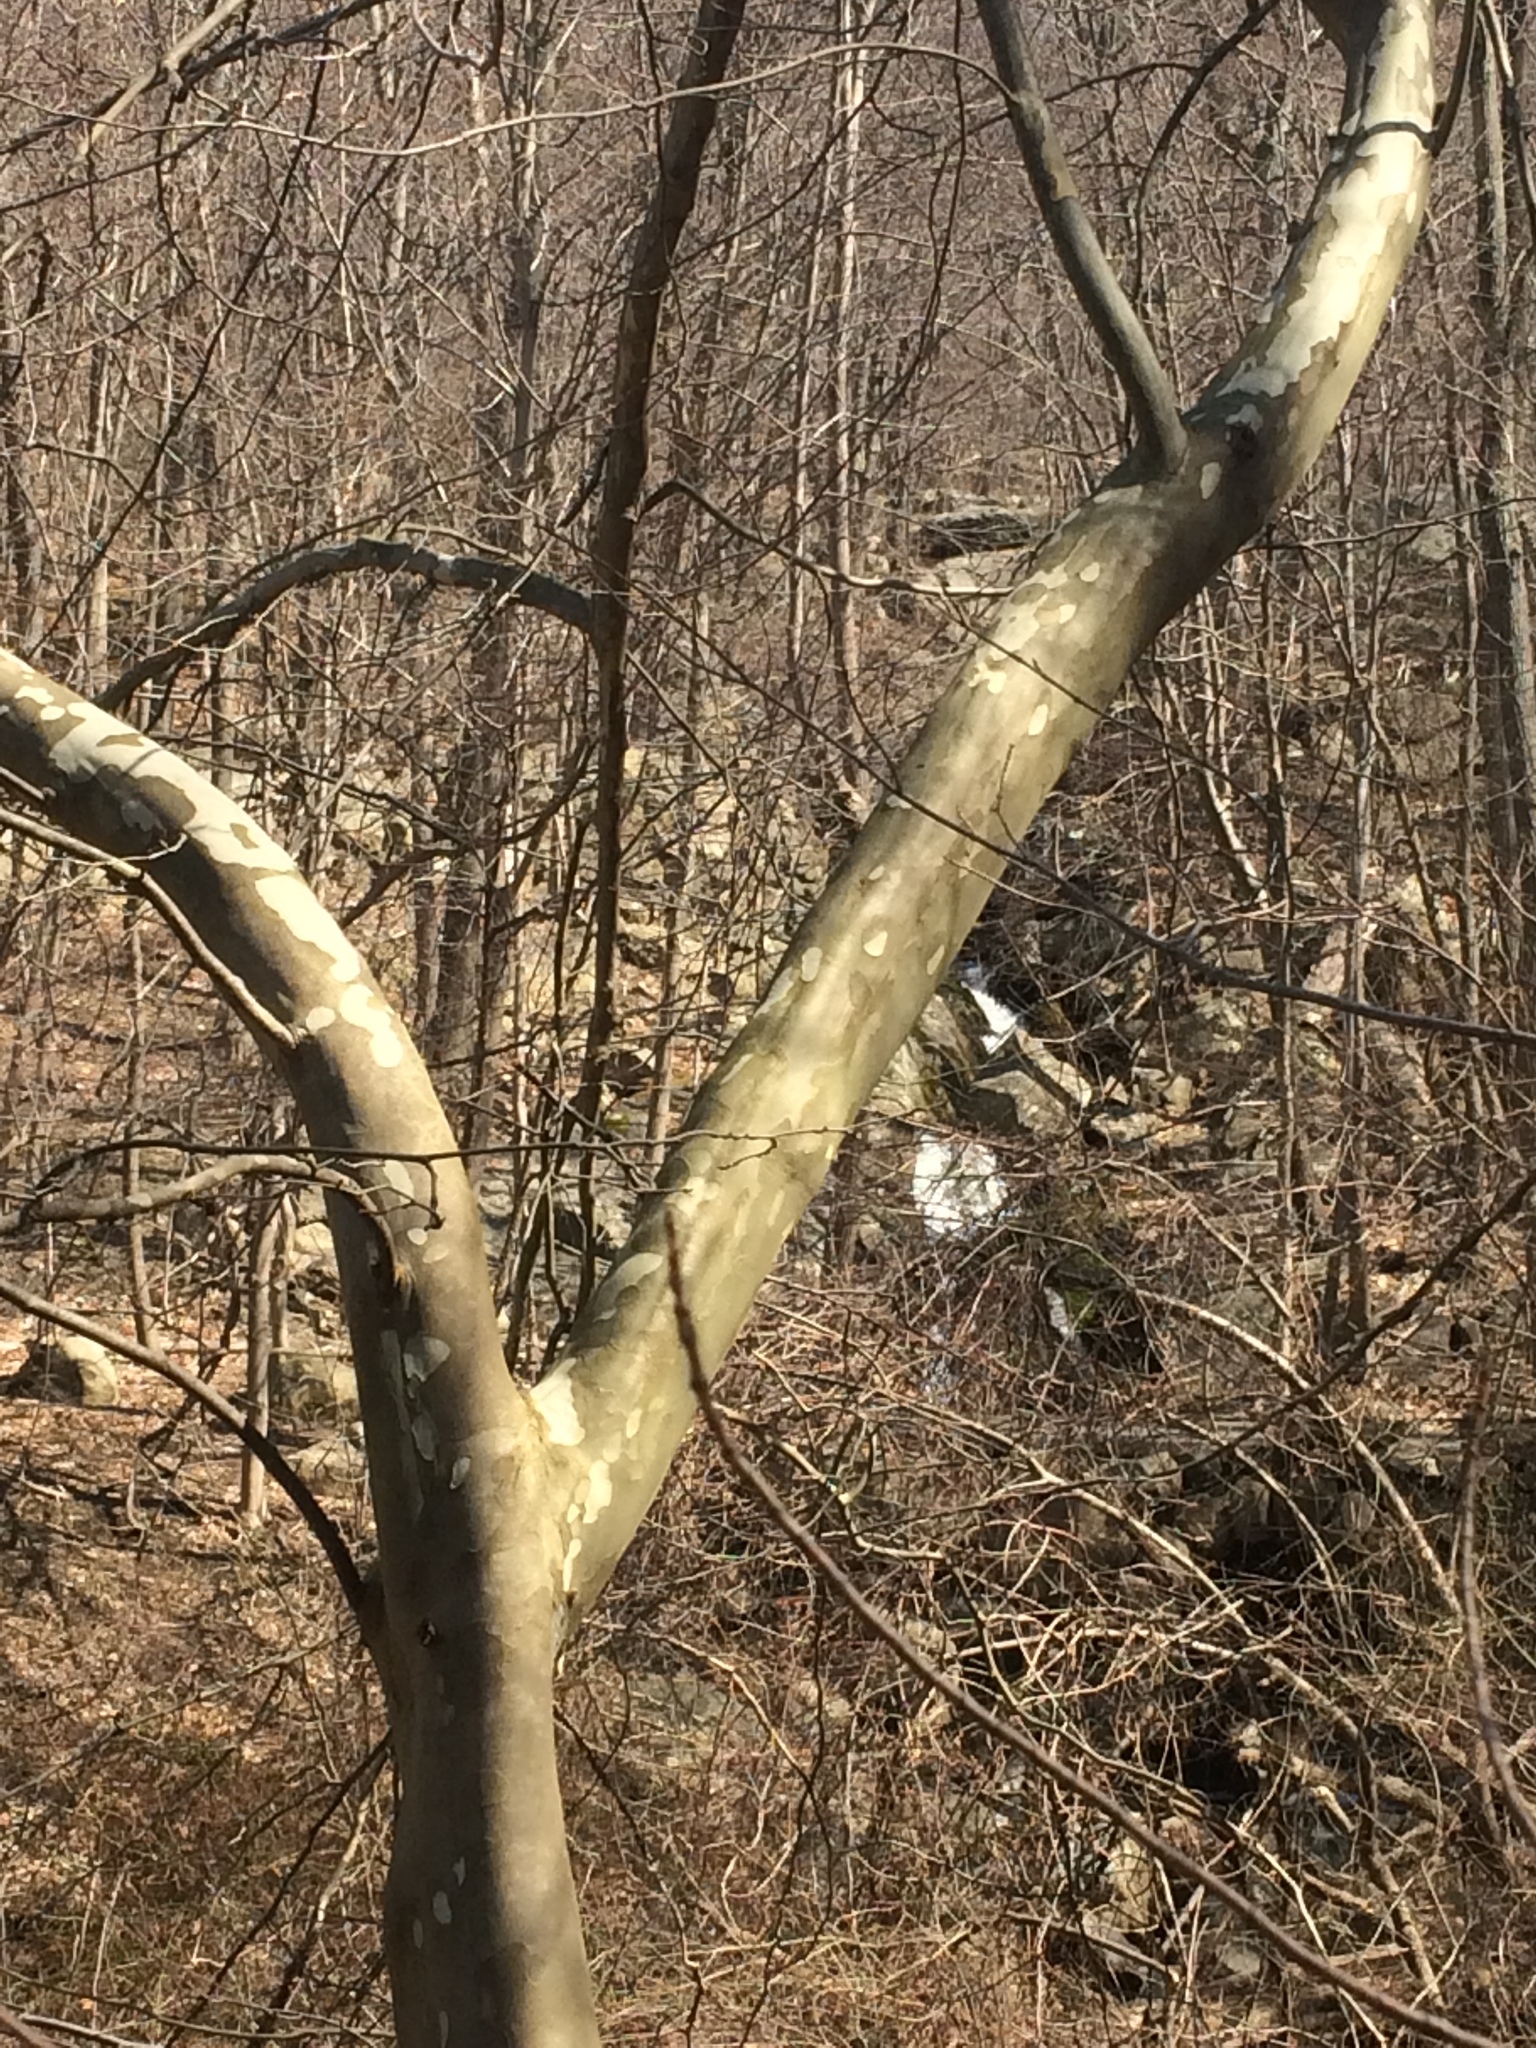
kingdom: Plantae
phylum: Tracheophyta
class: Magnoliopsida
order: Proteales
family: Platanaceae
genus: Platanus
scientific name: Platanus occidentalis
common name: American sycamore
